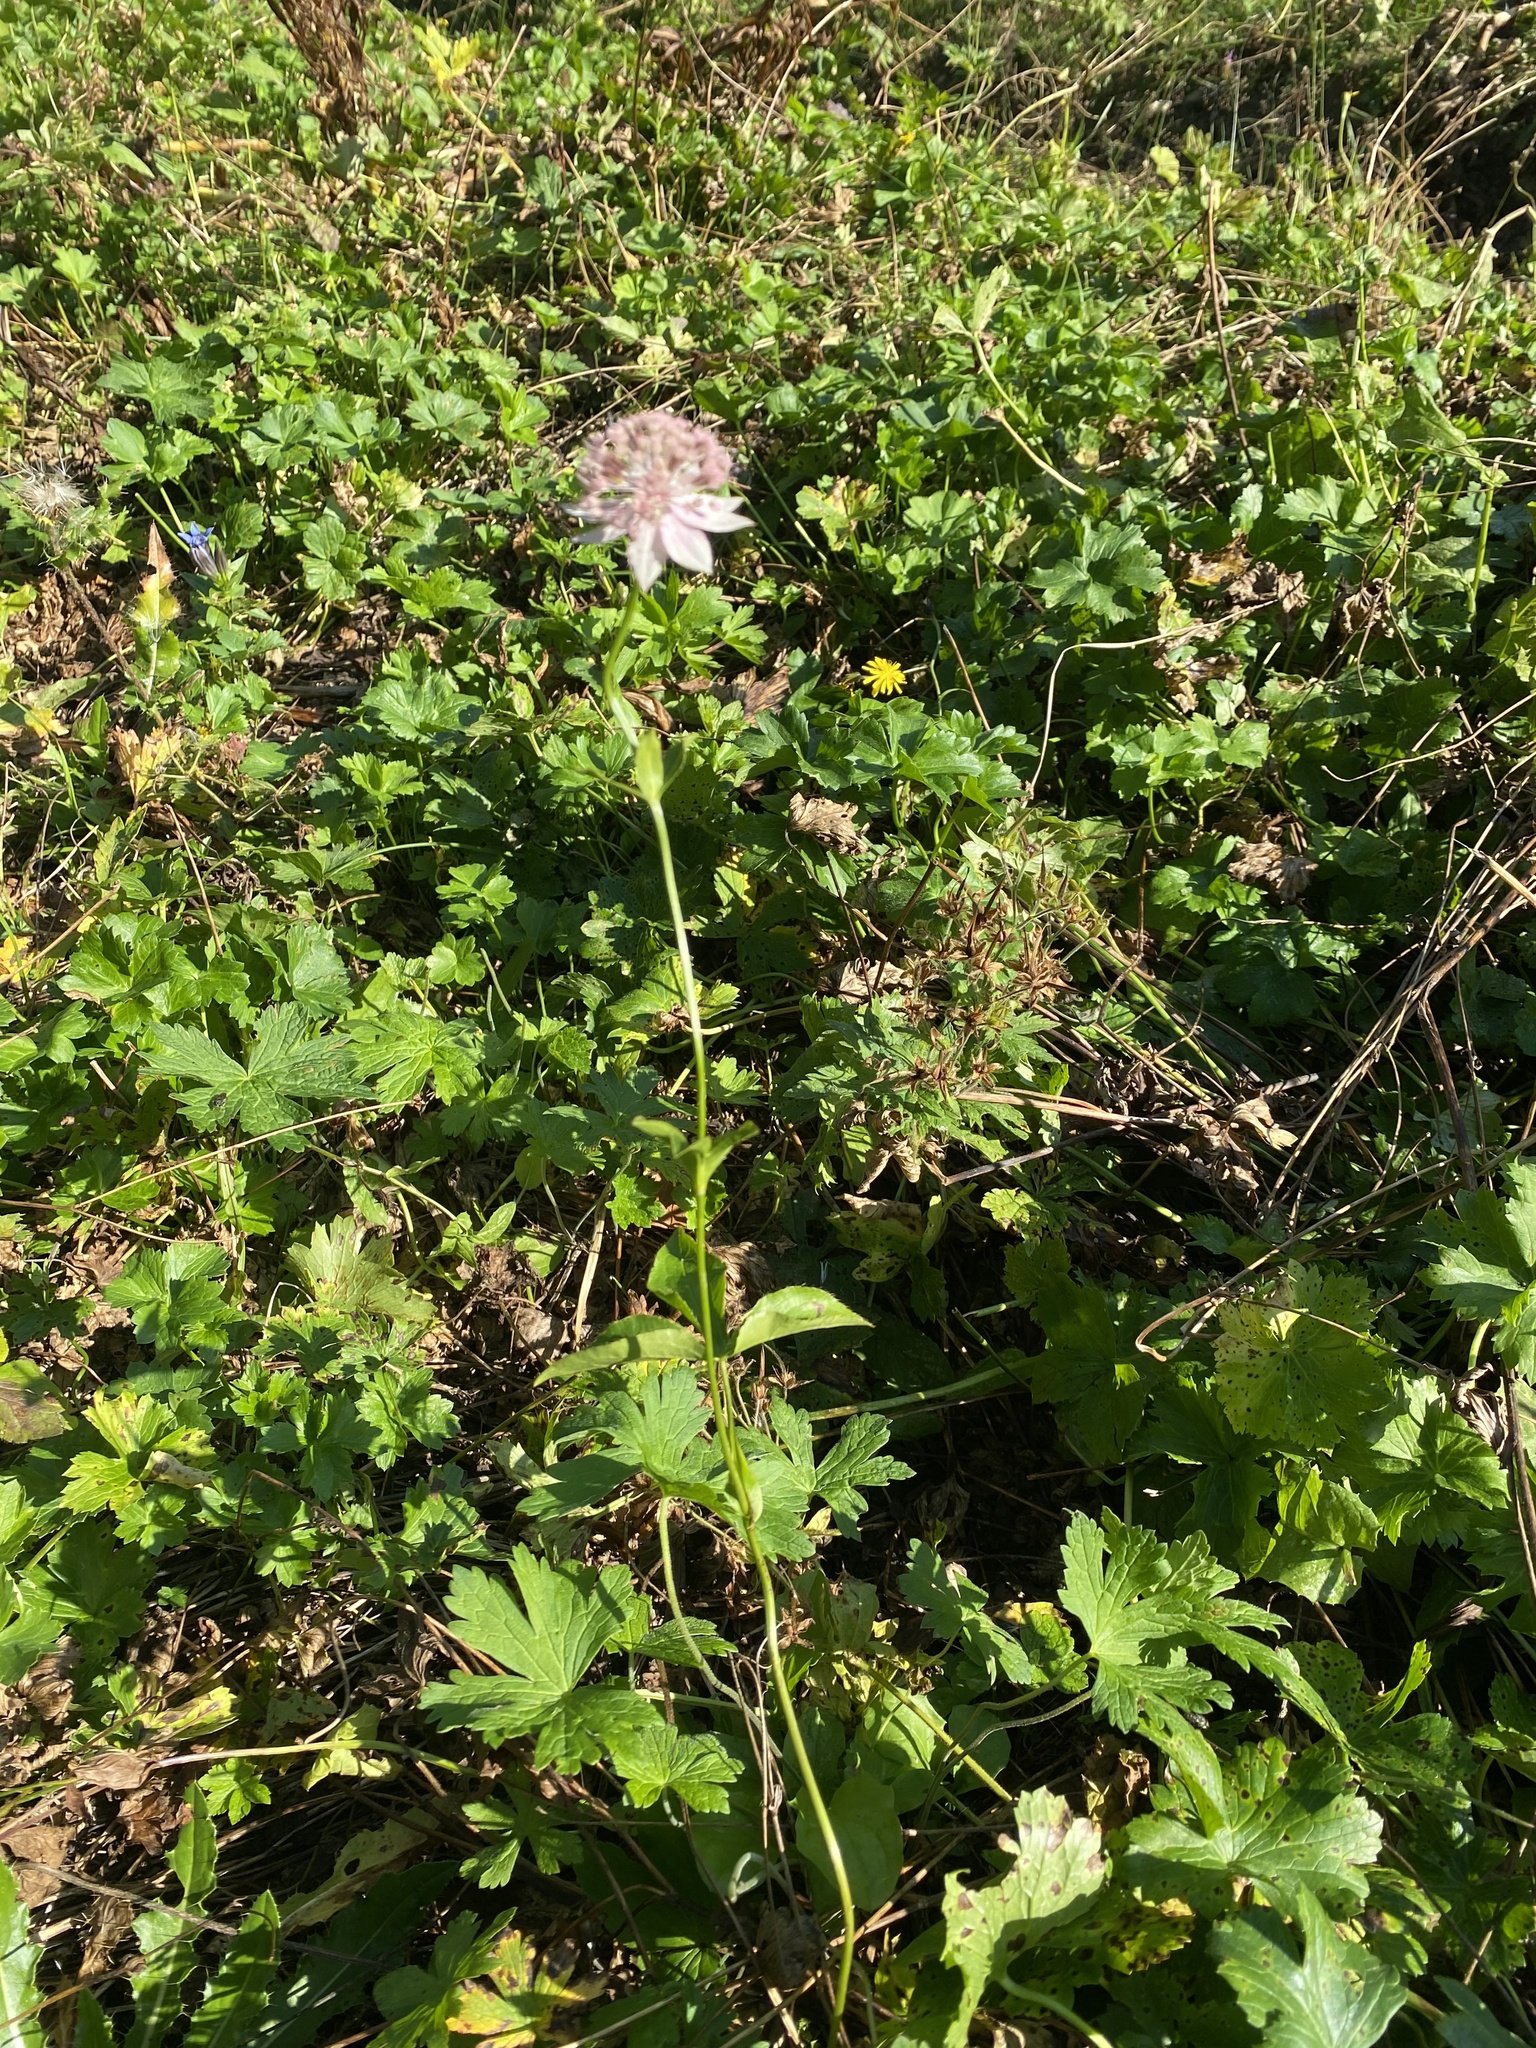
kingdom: Plantae
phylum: Tracheophyta
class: Magnoliopsida
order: Apiales
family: Apiaceae
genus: Astrantia
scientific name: Astrantia maxima
